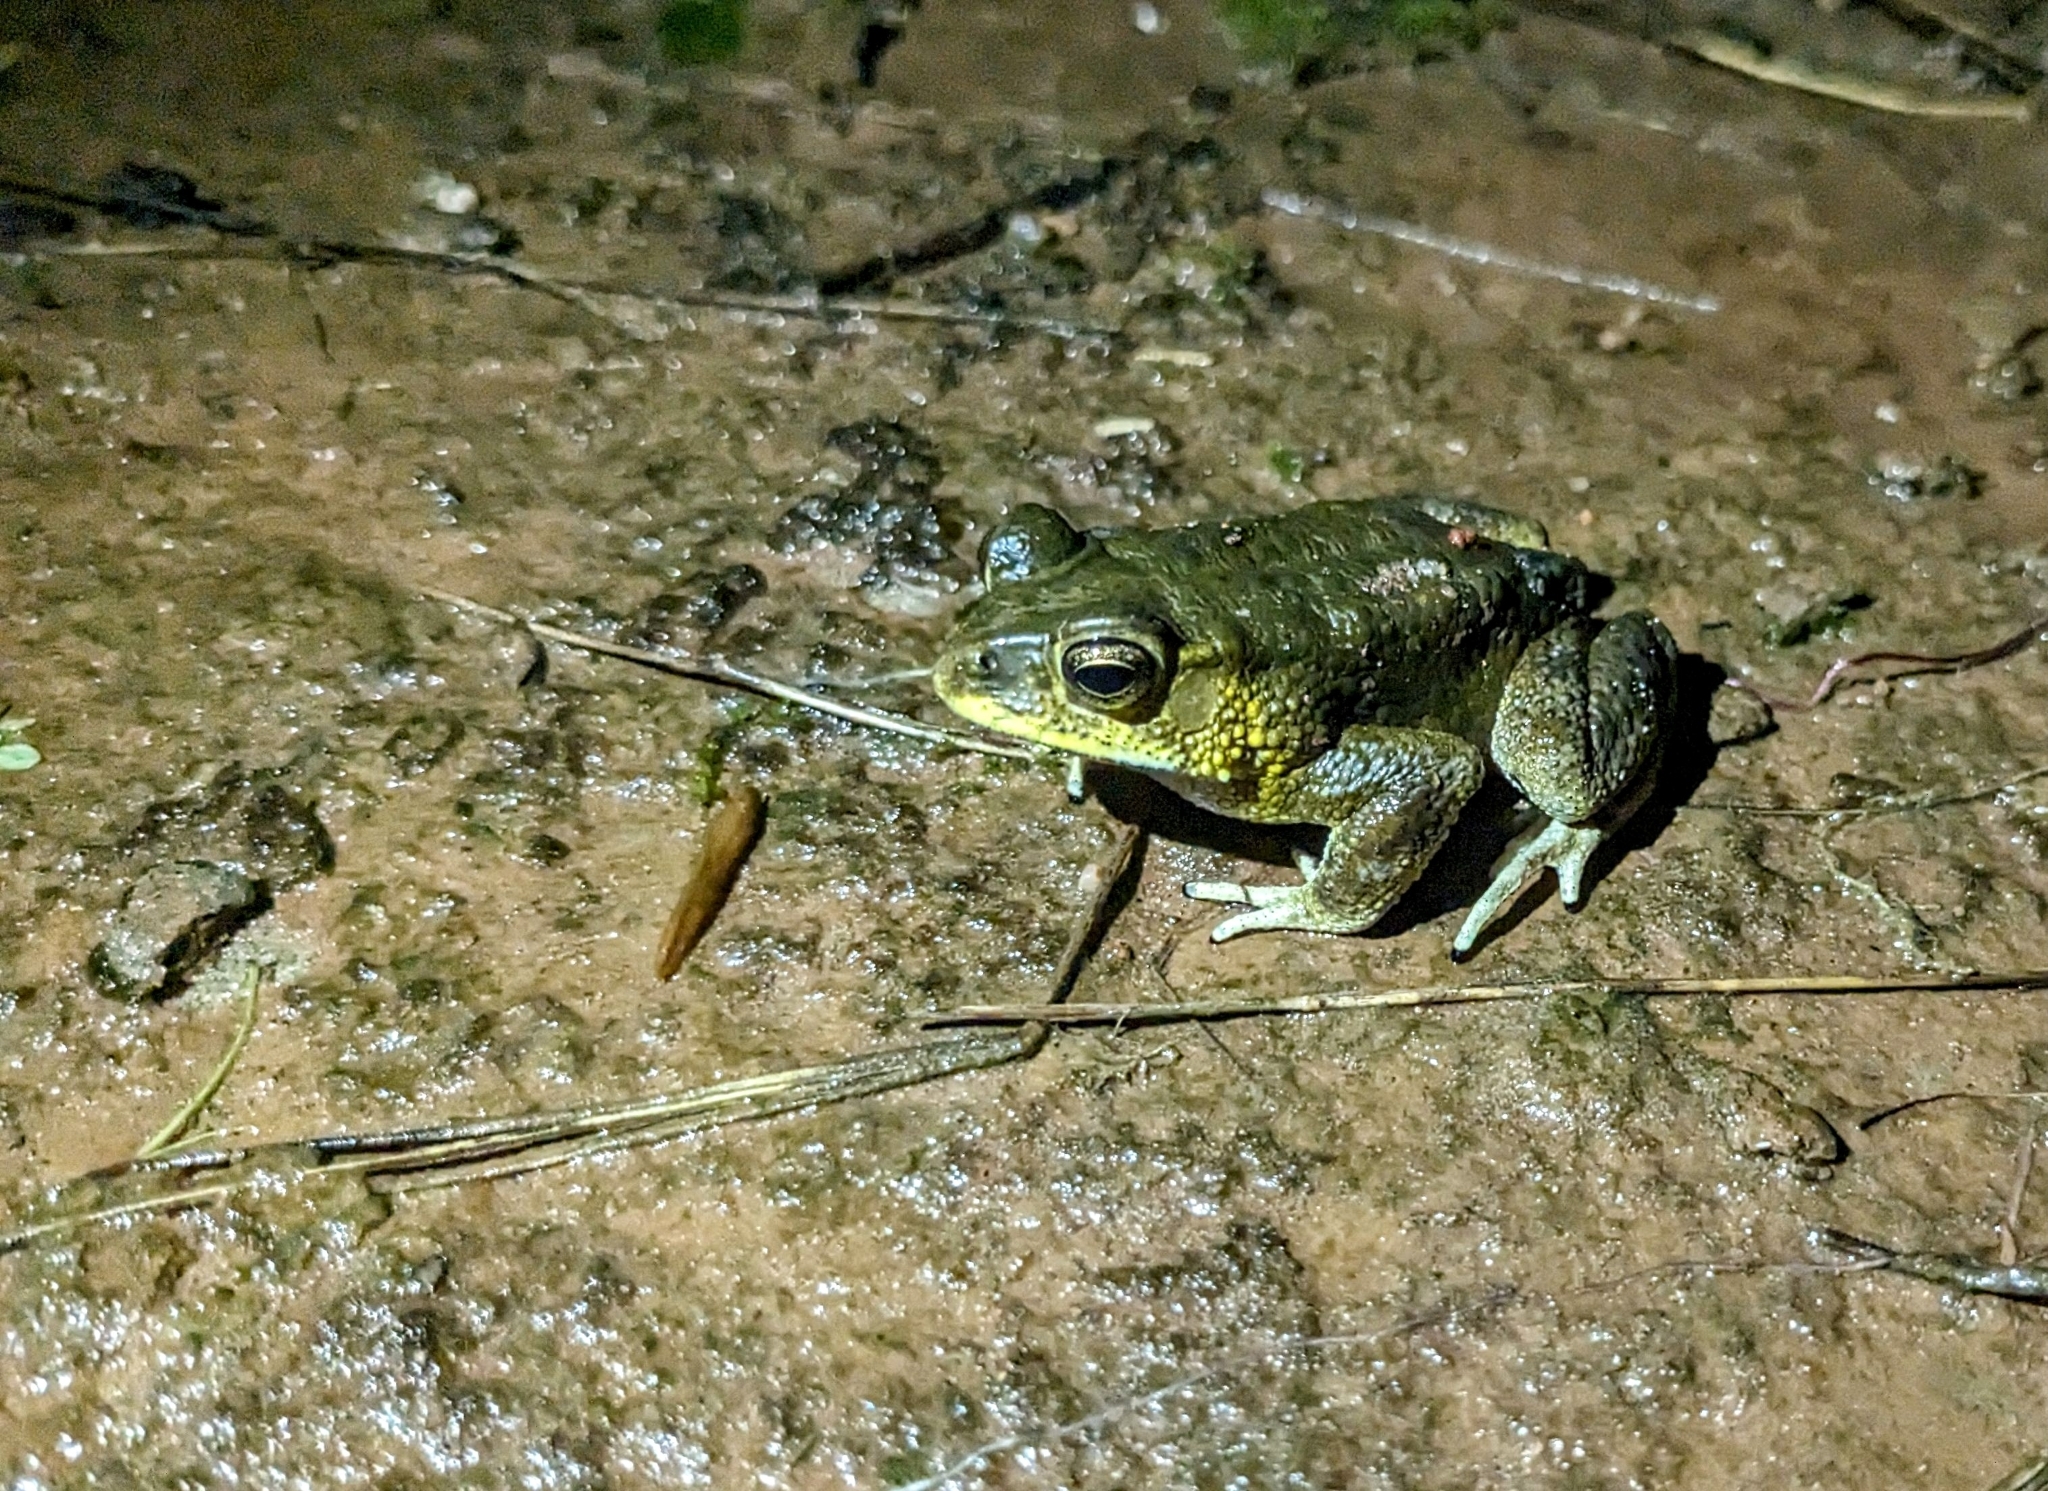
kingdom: Animalia
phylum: Chordata
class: Amphibia
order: Anura
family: Bufonidae
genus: Duttaphrynus
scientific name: Duttaphrynus melanostictus
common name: Common sunda toad
